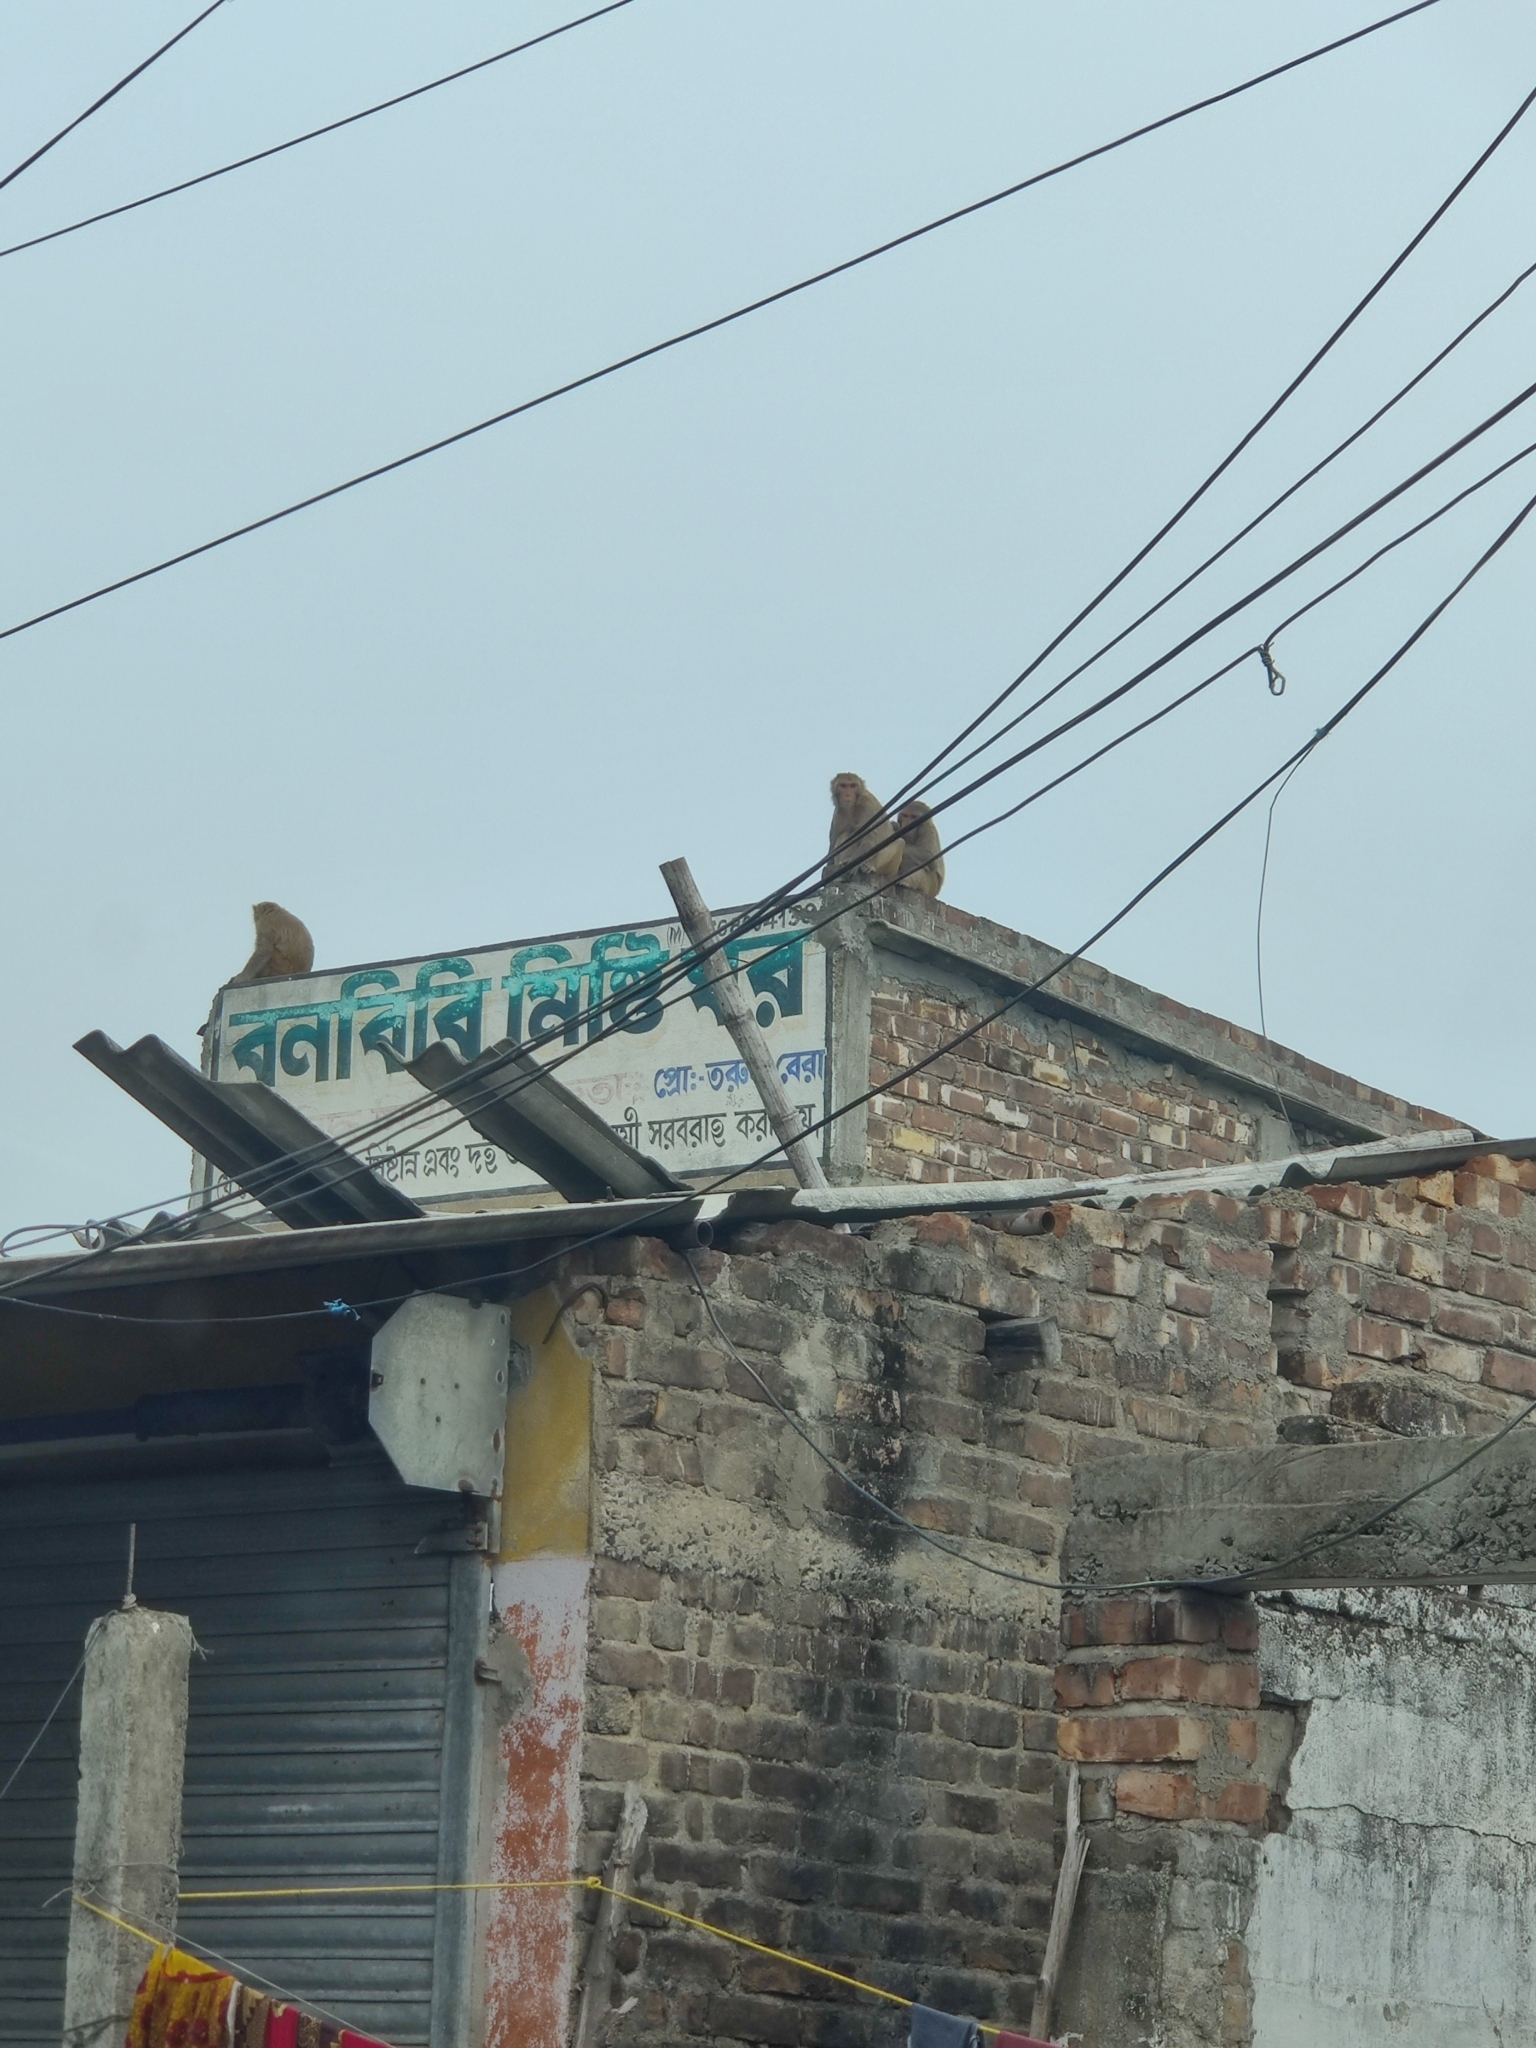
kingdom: Animalia
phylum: Chordata
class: Mammalia
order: Primates
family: Cercopithecidae
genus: Macaca
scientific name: Macaca mulatta
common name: Rhesus monkey
